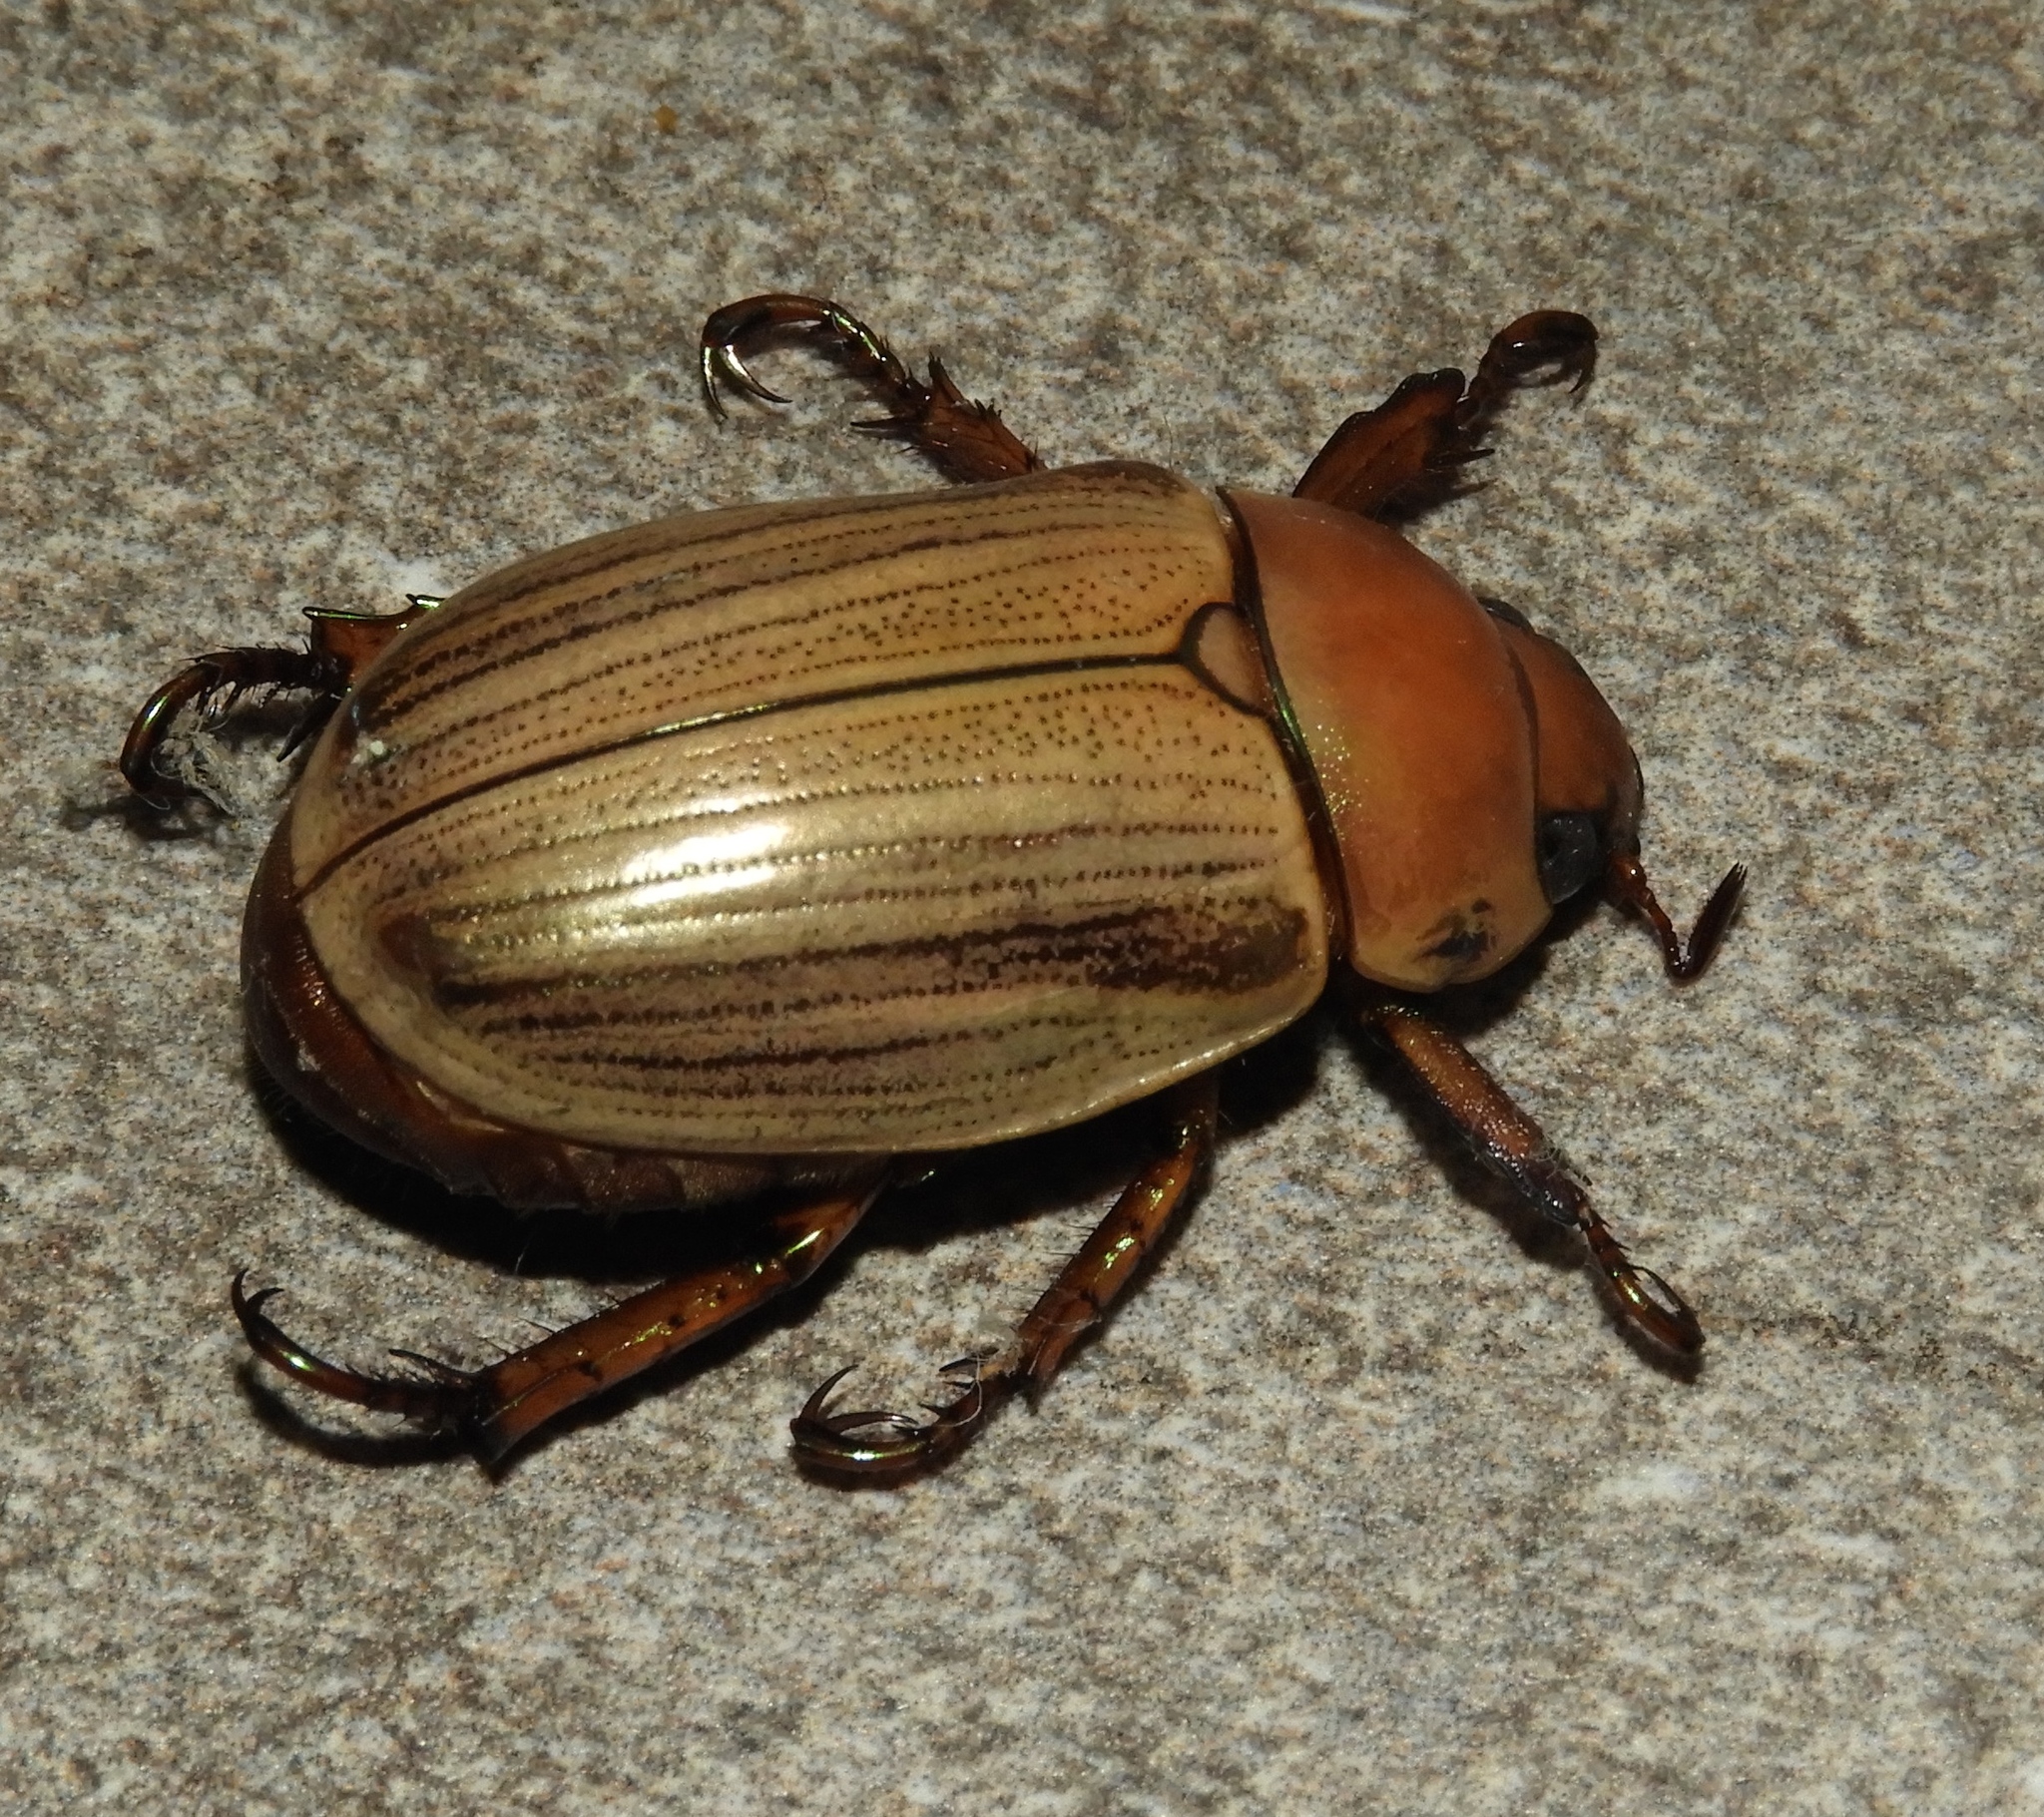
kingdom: Animalia
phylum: Arthropoda
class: Insecta
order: Coleoptera
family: Scarabaeidae
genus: Pelidnota
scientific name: Pelidnota virescens
